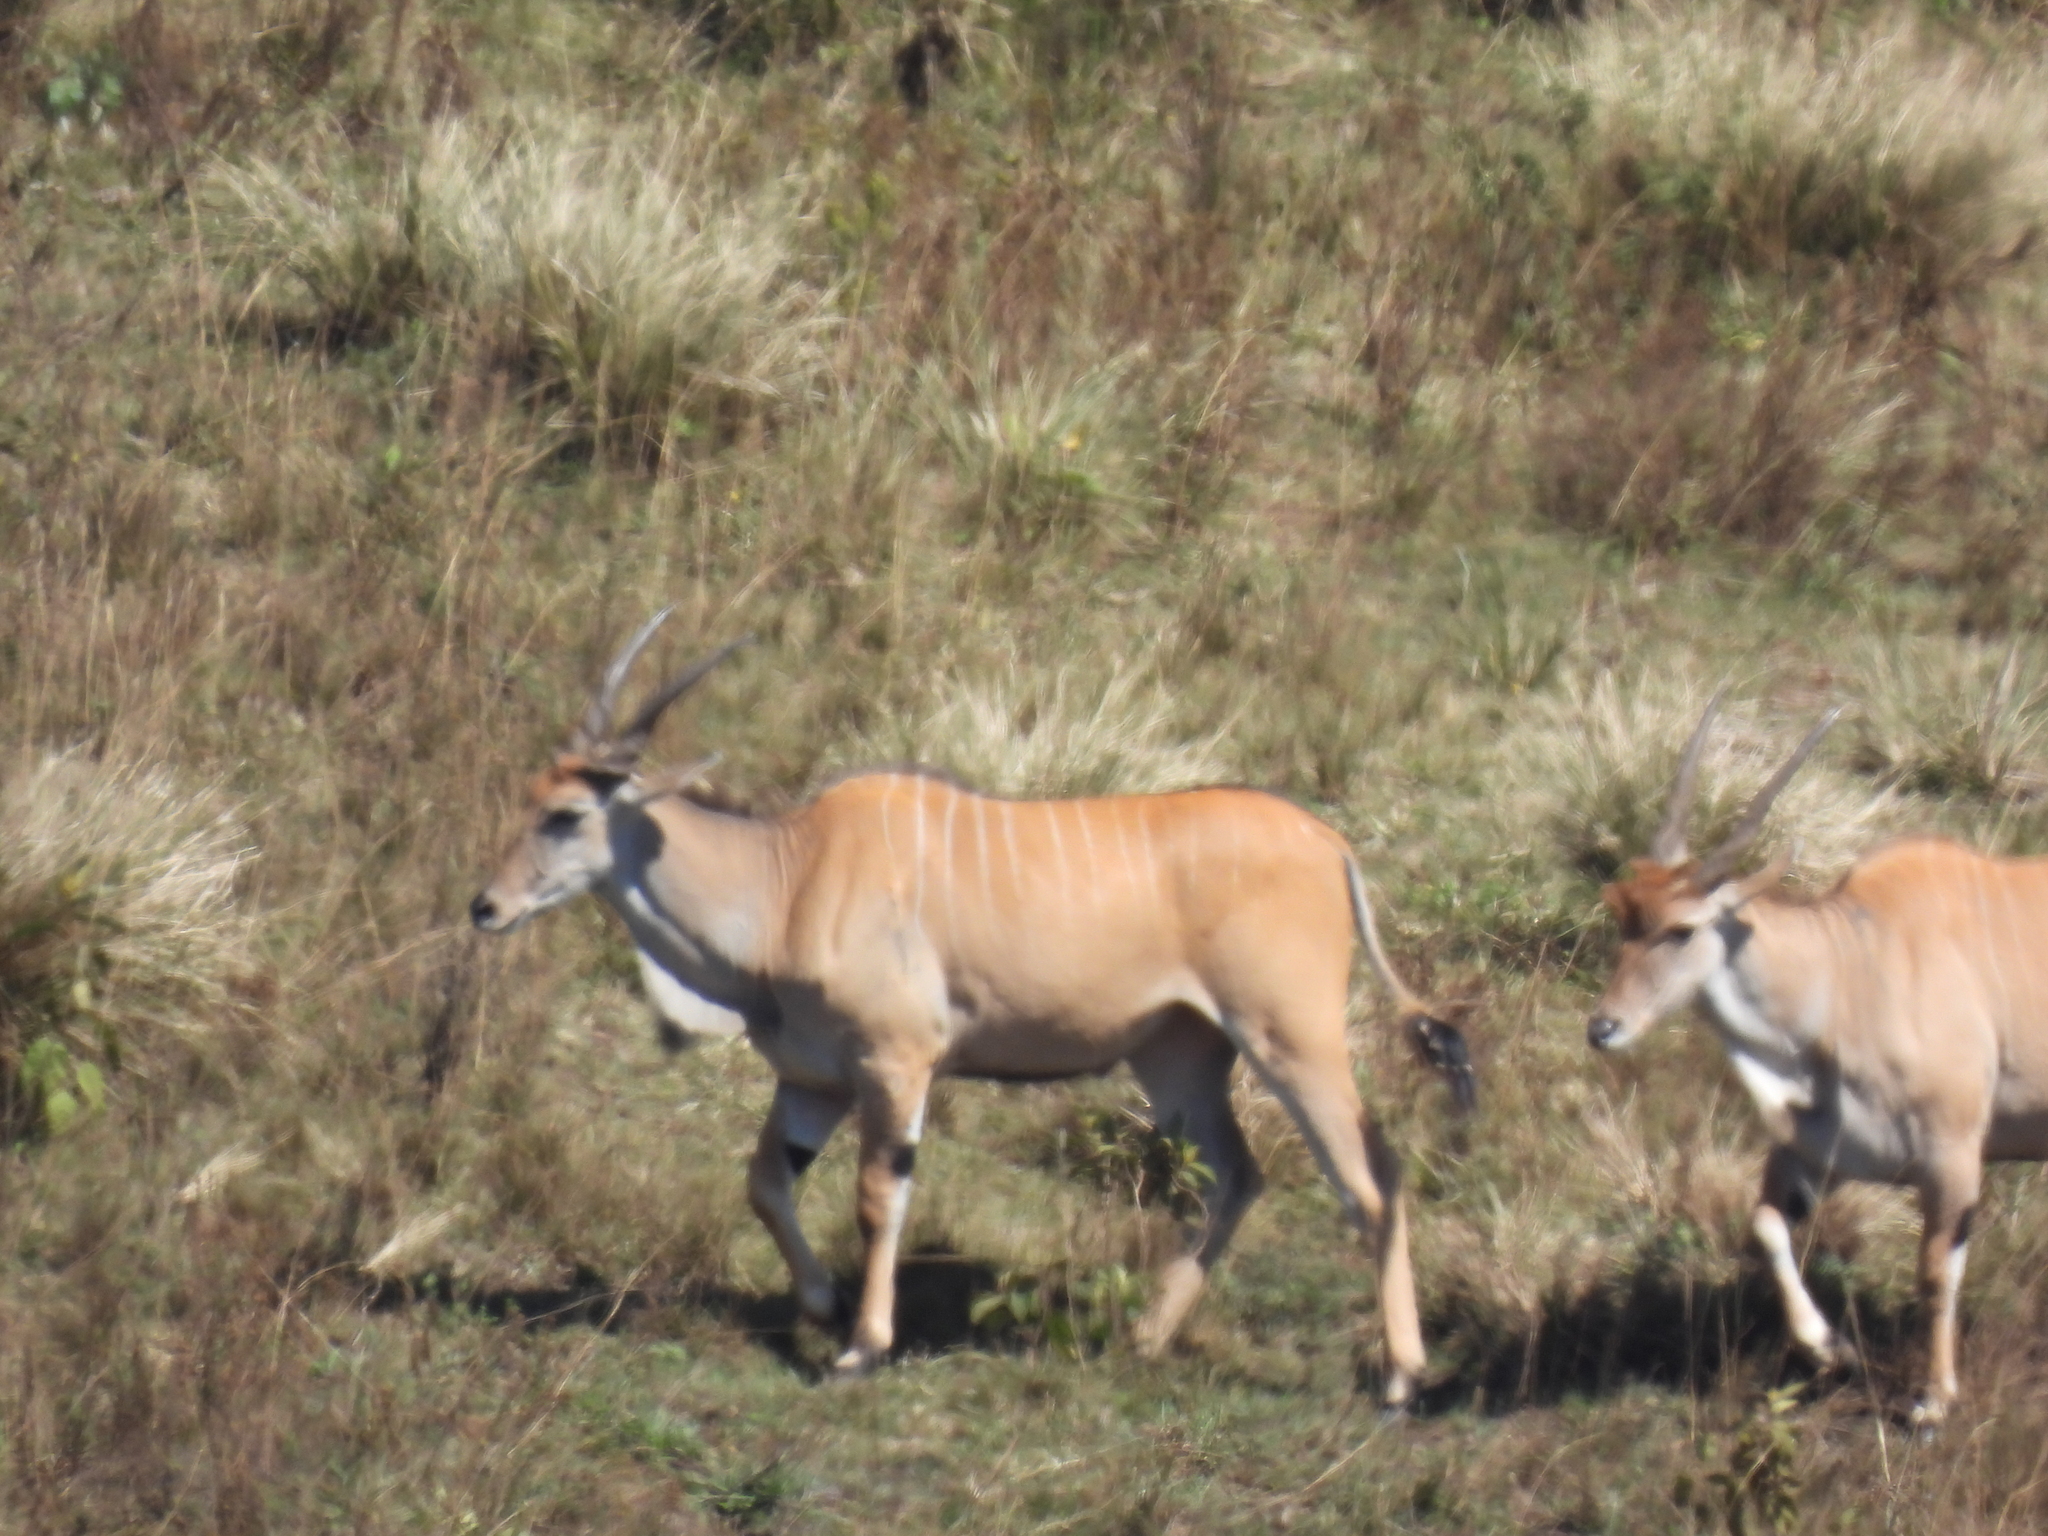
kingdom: Animalia
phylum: Chordata
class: Mammalia
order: Artiodactyla
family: Bovidae
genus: Taurotragus
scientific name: Taurotragus oryx
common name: Common eland
